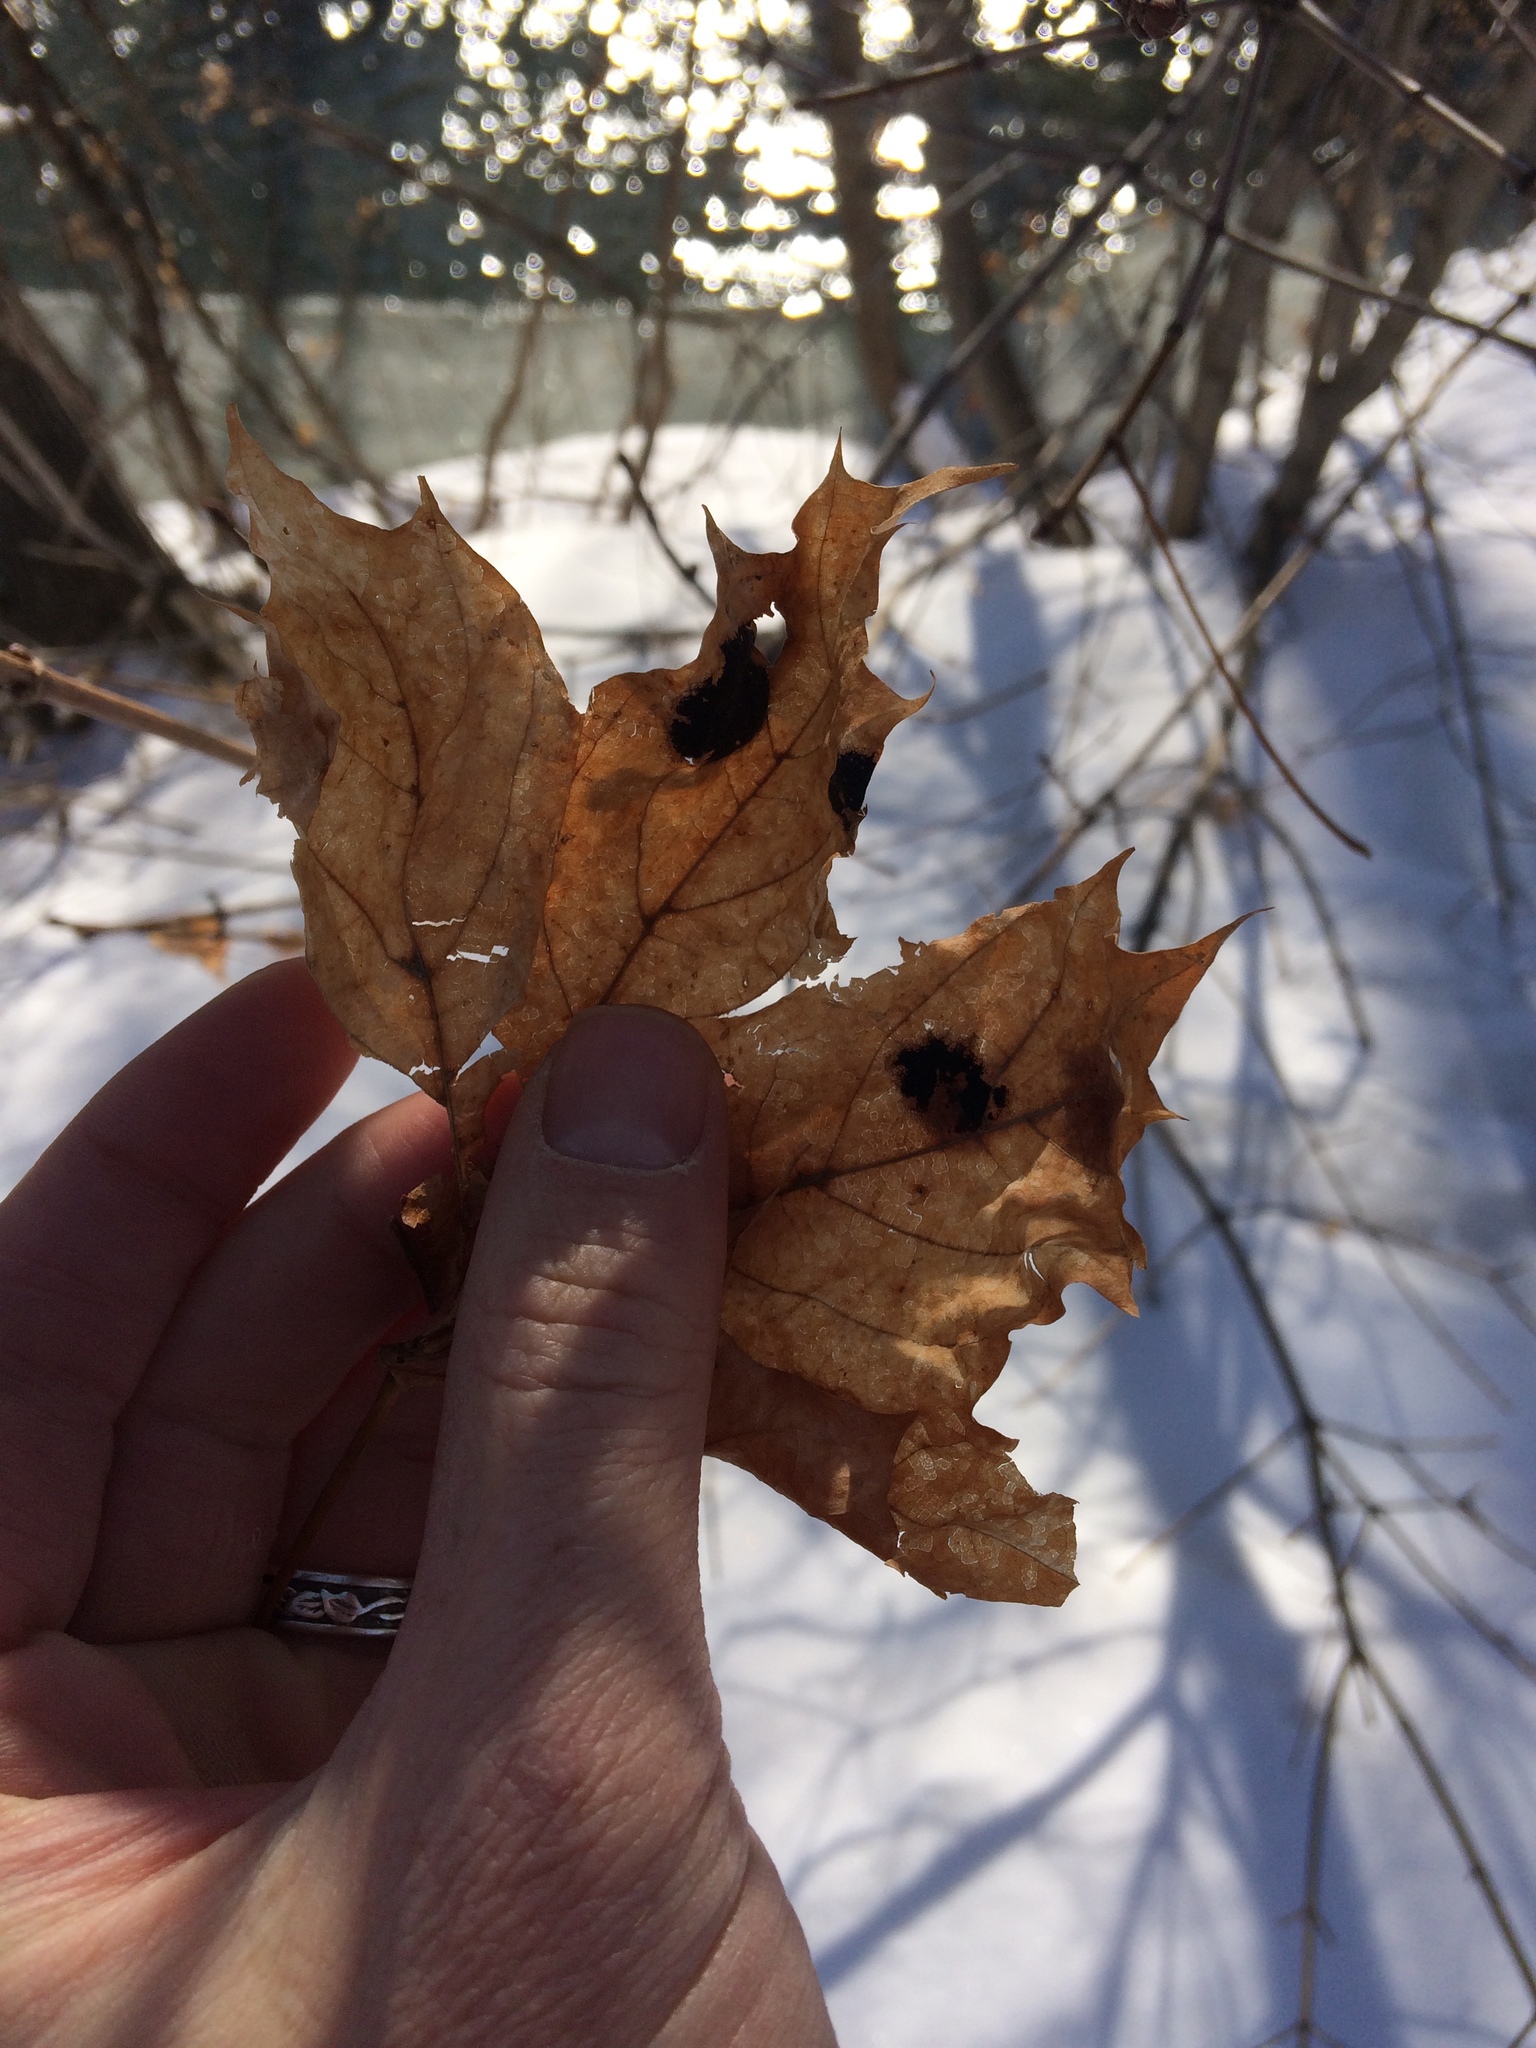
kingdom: Fungi
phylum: Ascomycota
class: Leotiomycetes
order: Rhytismatales
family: Rhytismataceae
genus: Rhytisma
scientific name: Rhytisma acerinum
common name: European tar spot
